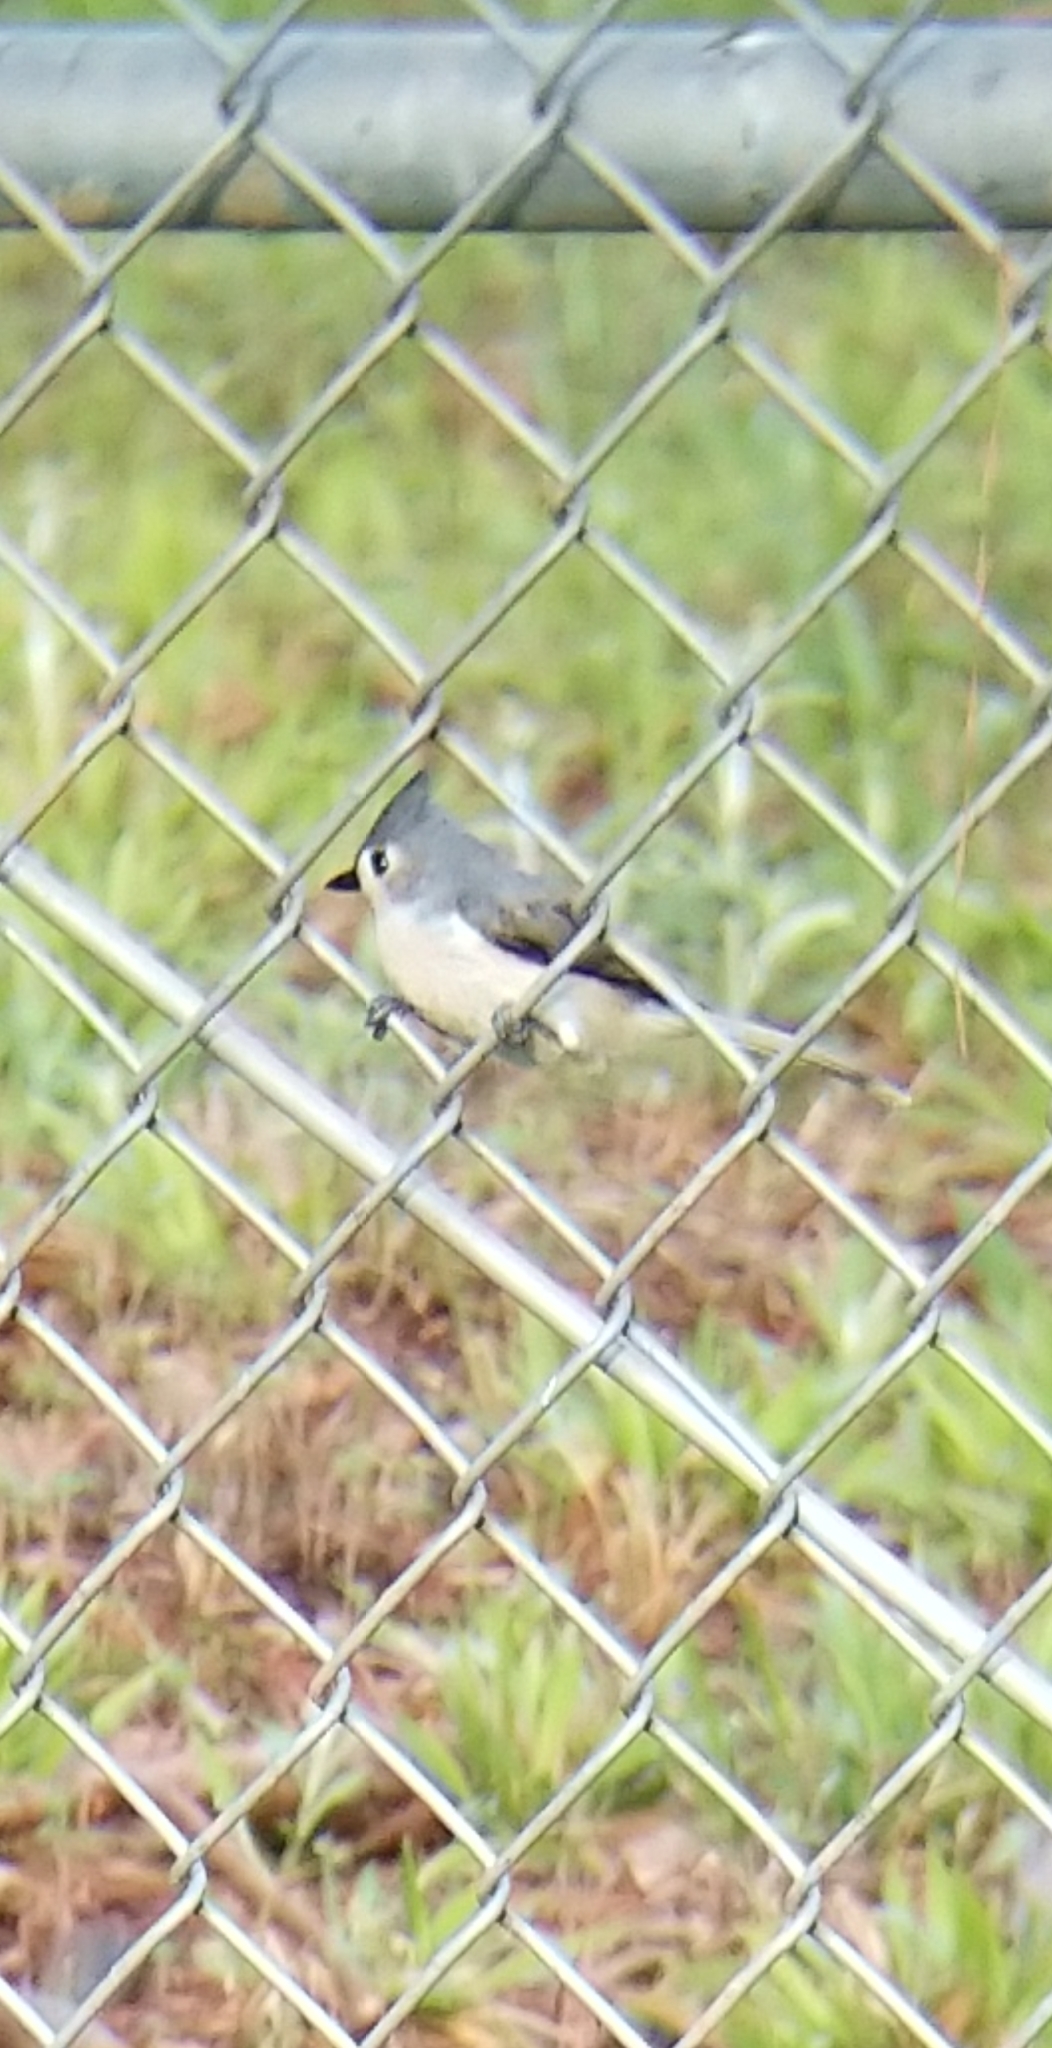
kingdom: Animalia
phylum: Chordata
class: Aves
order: Passeriformes
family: Paridae
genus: Baeolophus
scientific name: Baeolophus bicolor
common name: Tufted titmouse
